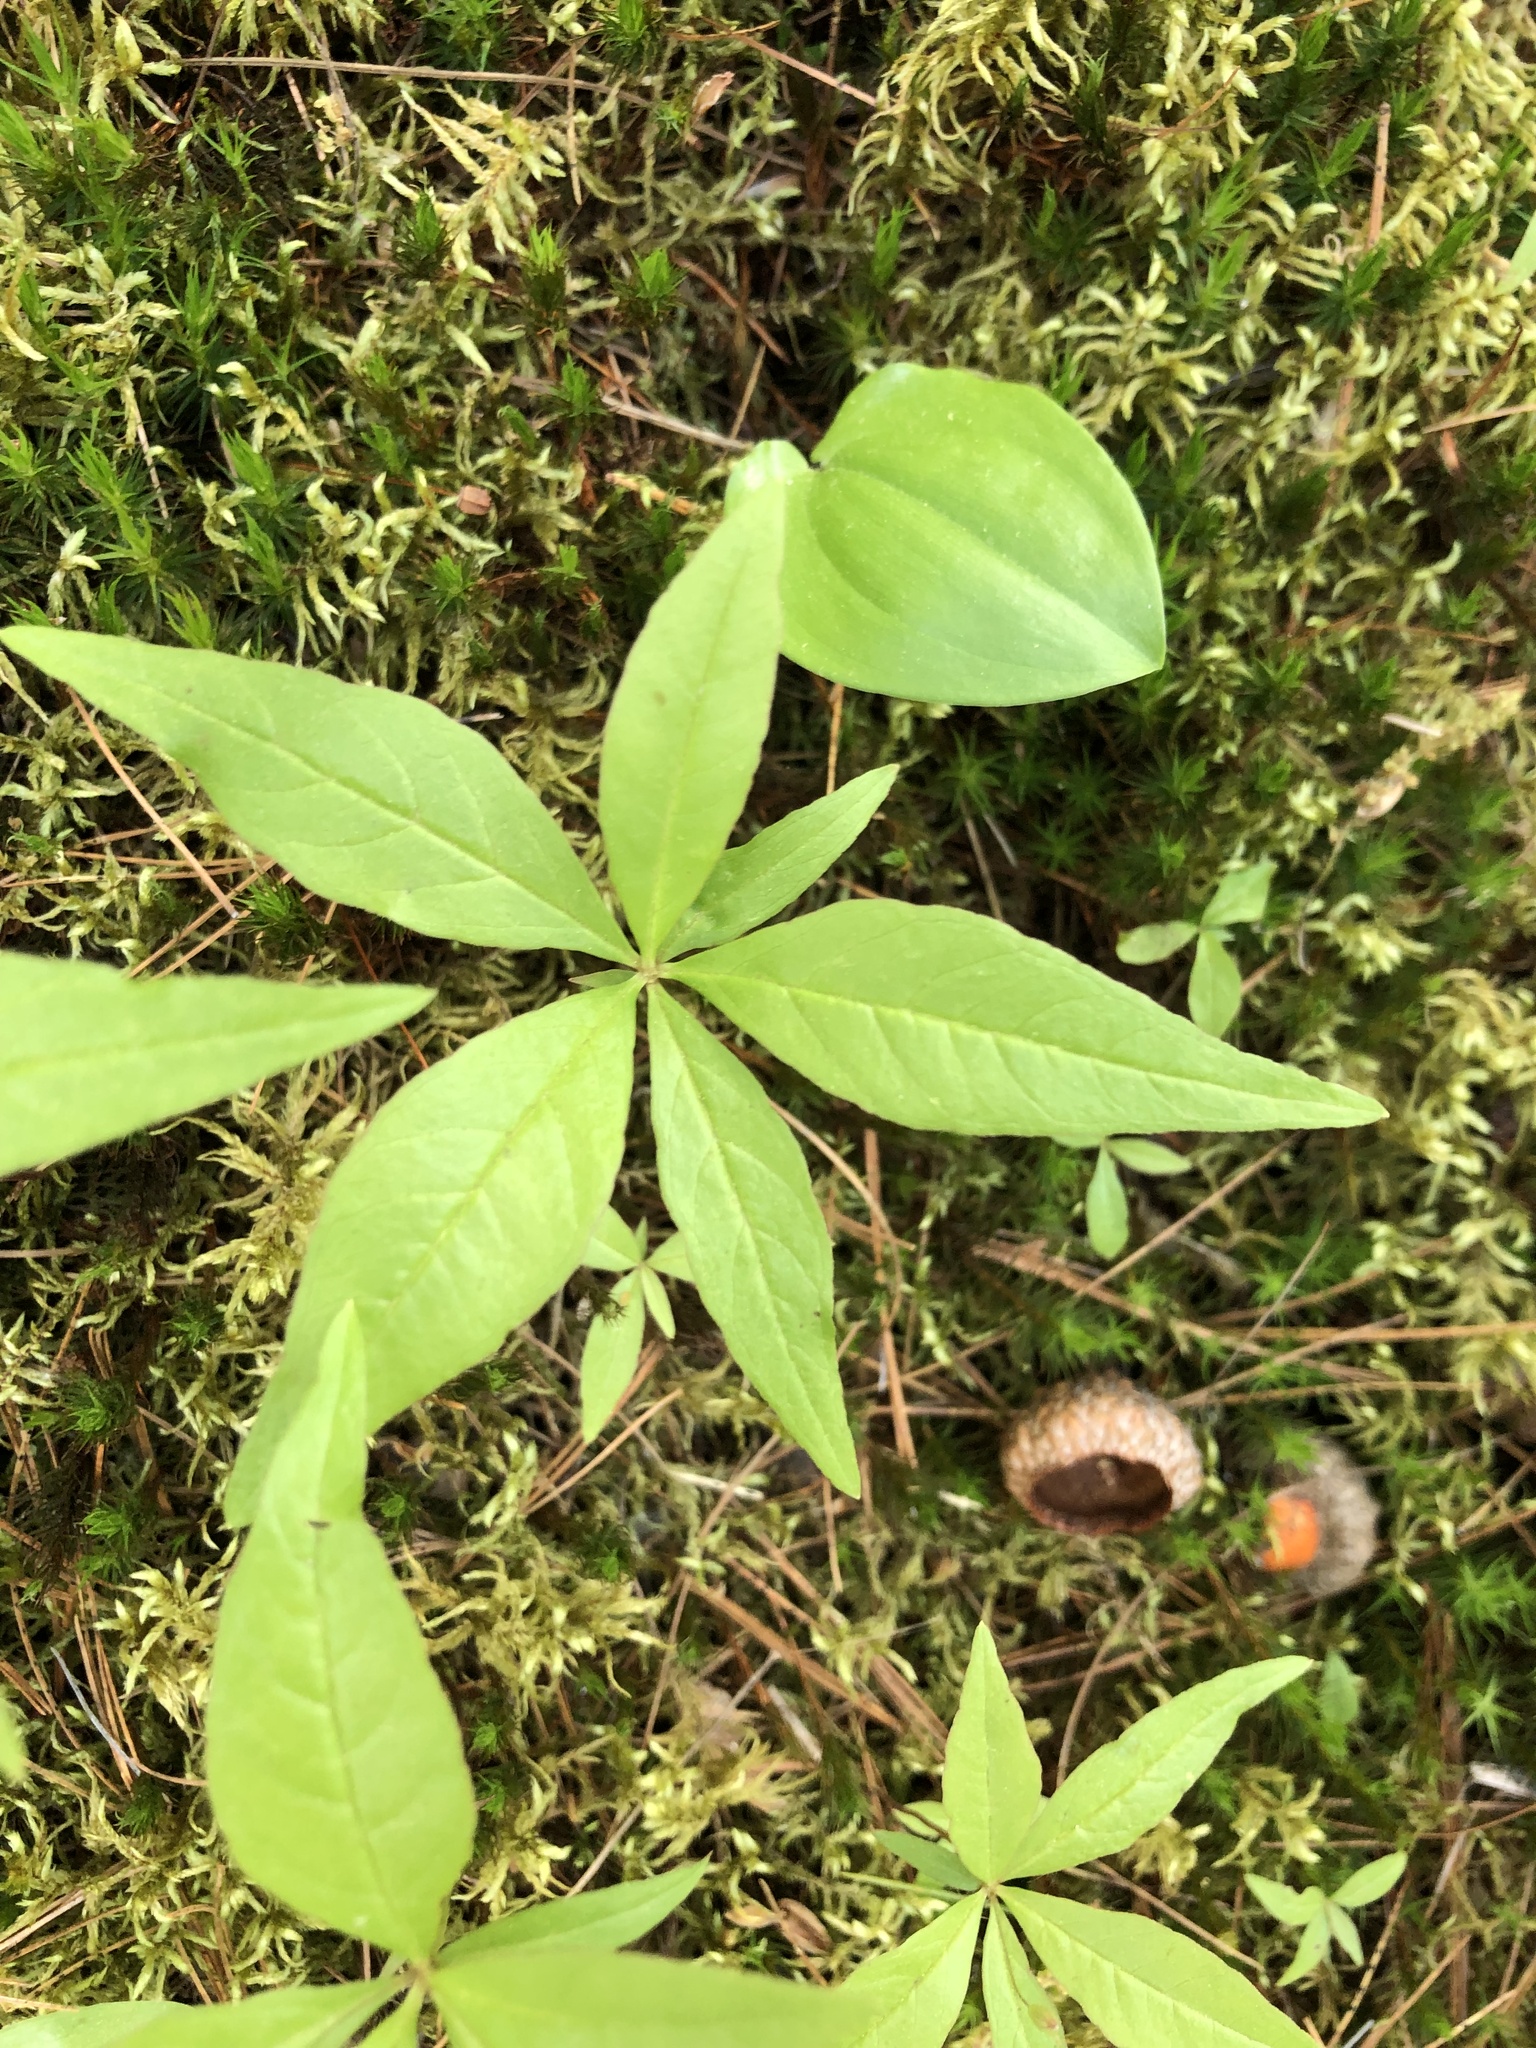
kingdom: Plantae
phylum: Tracheophyta
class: Magnoliopsida
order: Ericales
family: Primulaceae
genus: Lysimachia
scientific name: Lysimachia borealis
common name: American starflower
